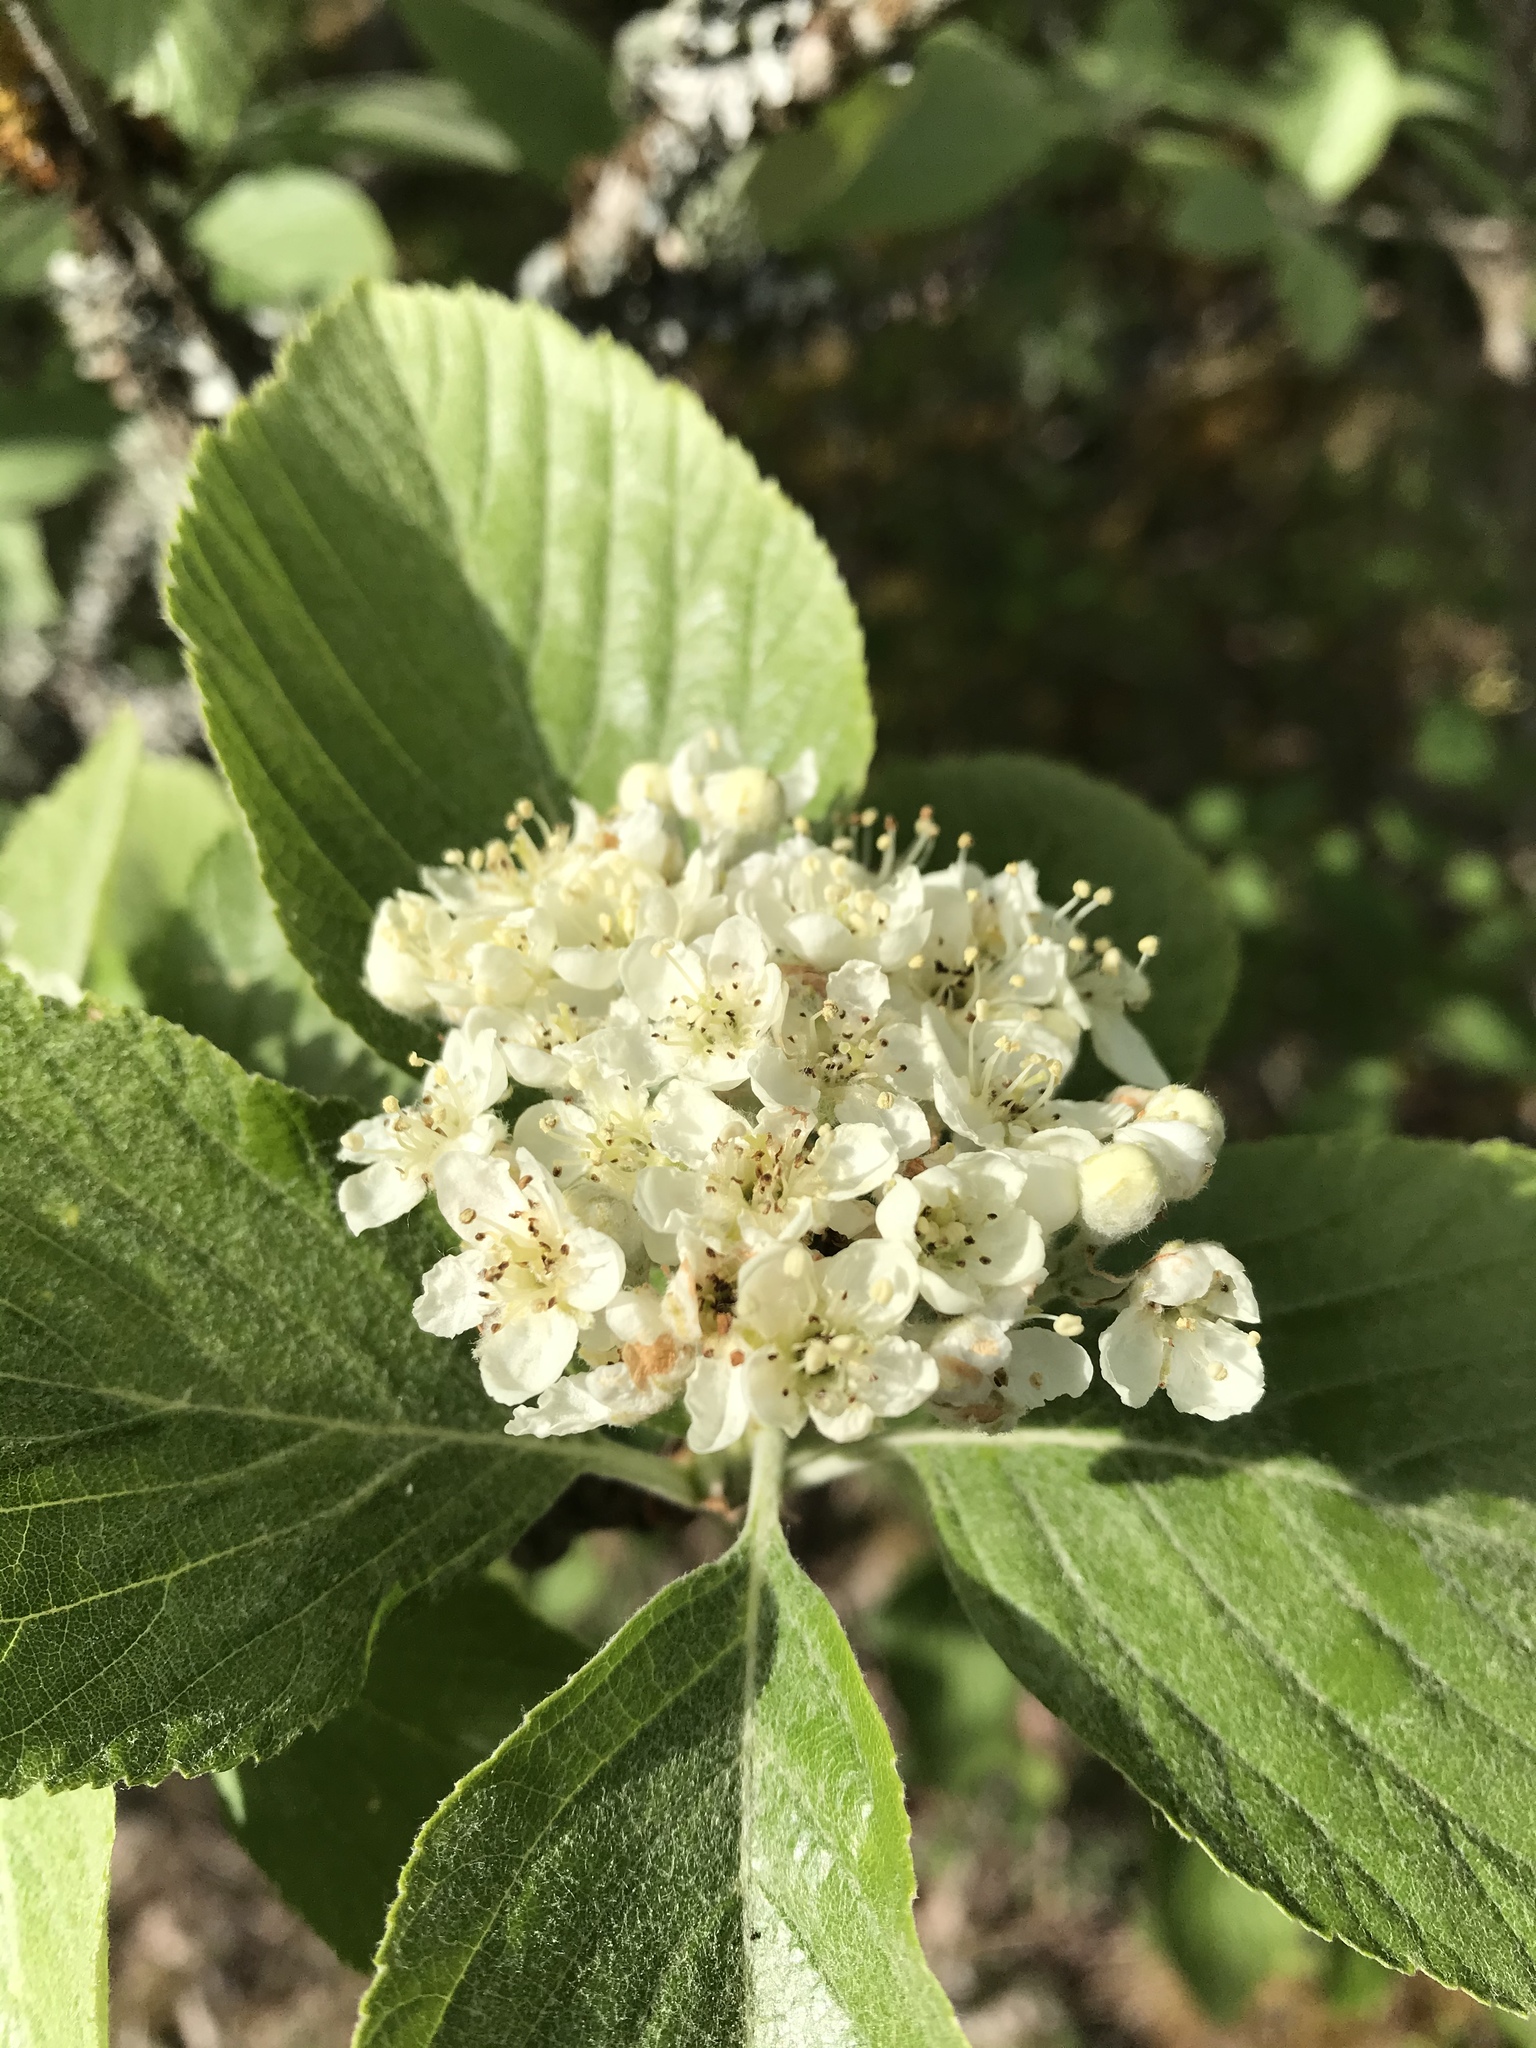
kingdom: Plantae
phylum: Tracheophyta
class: Magnoliopsida
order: Rosales
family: Rosaceae
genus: Aria
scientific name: Aria edulis
